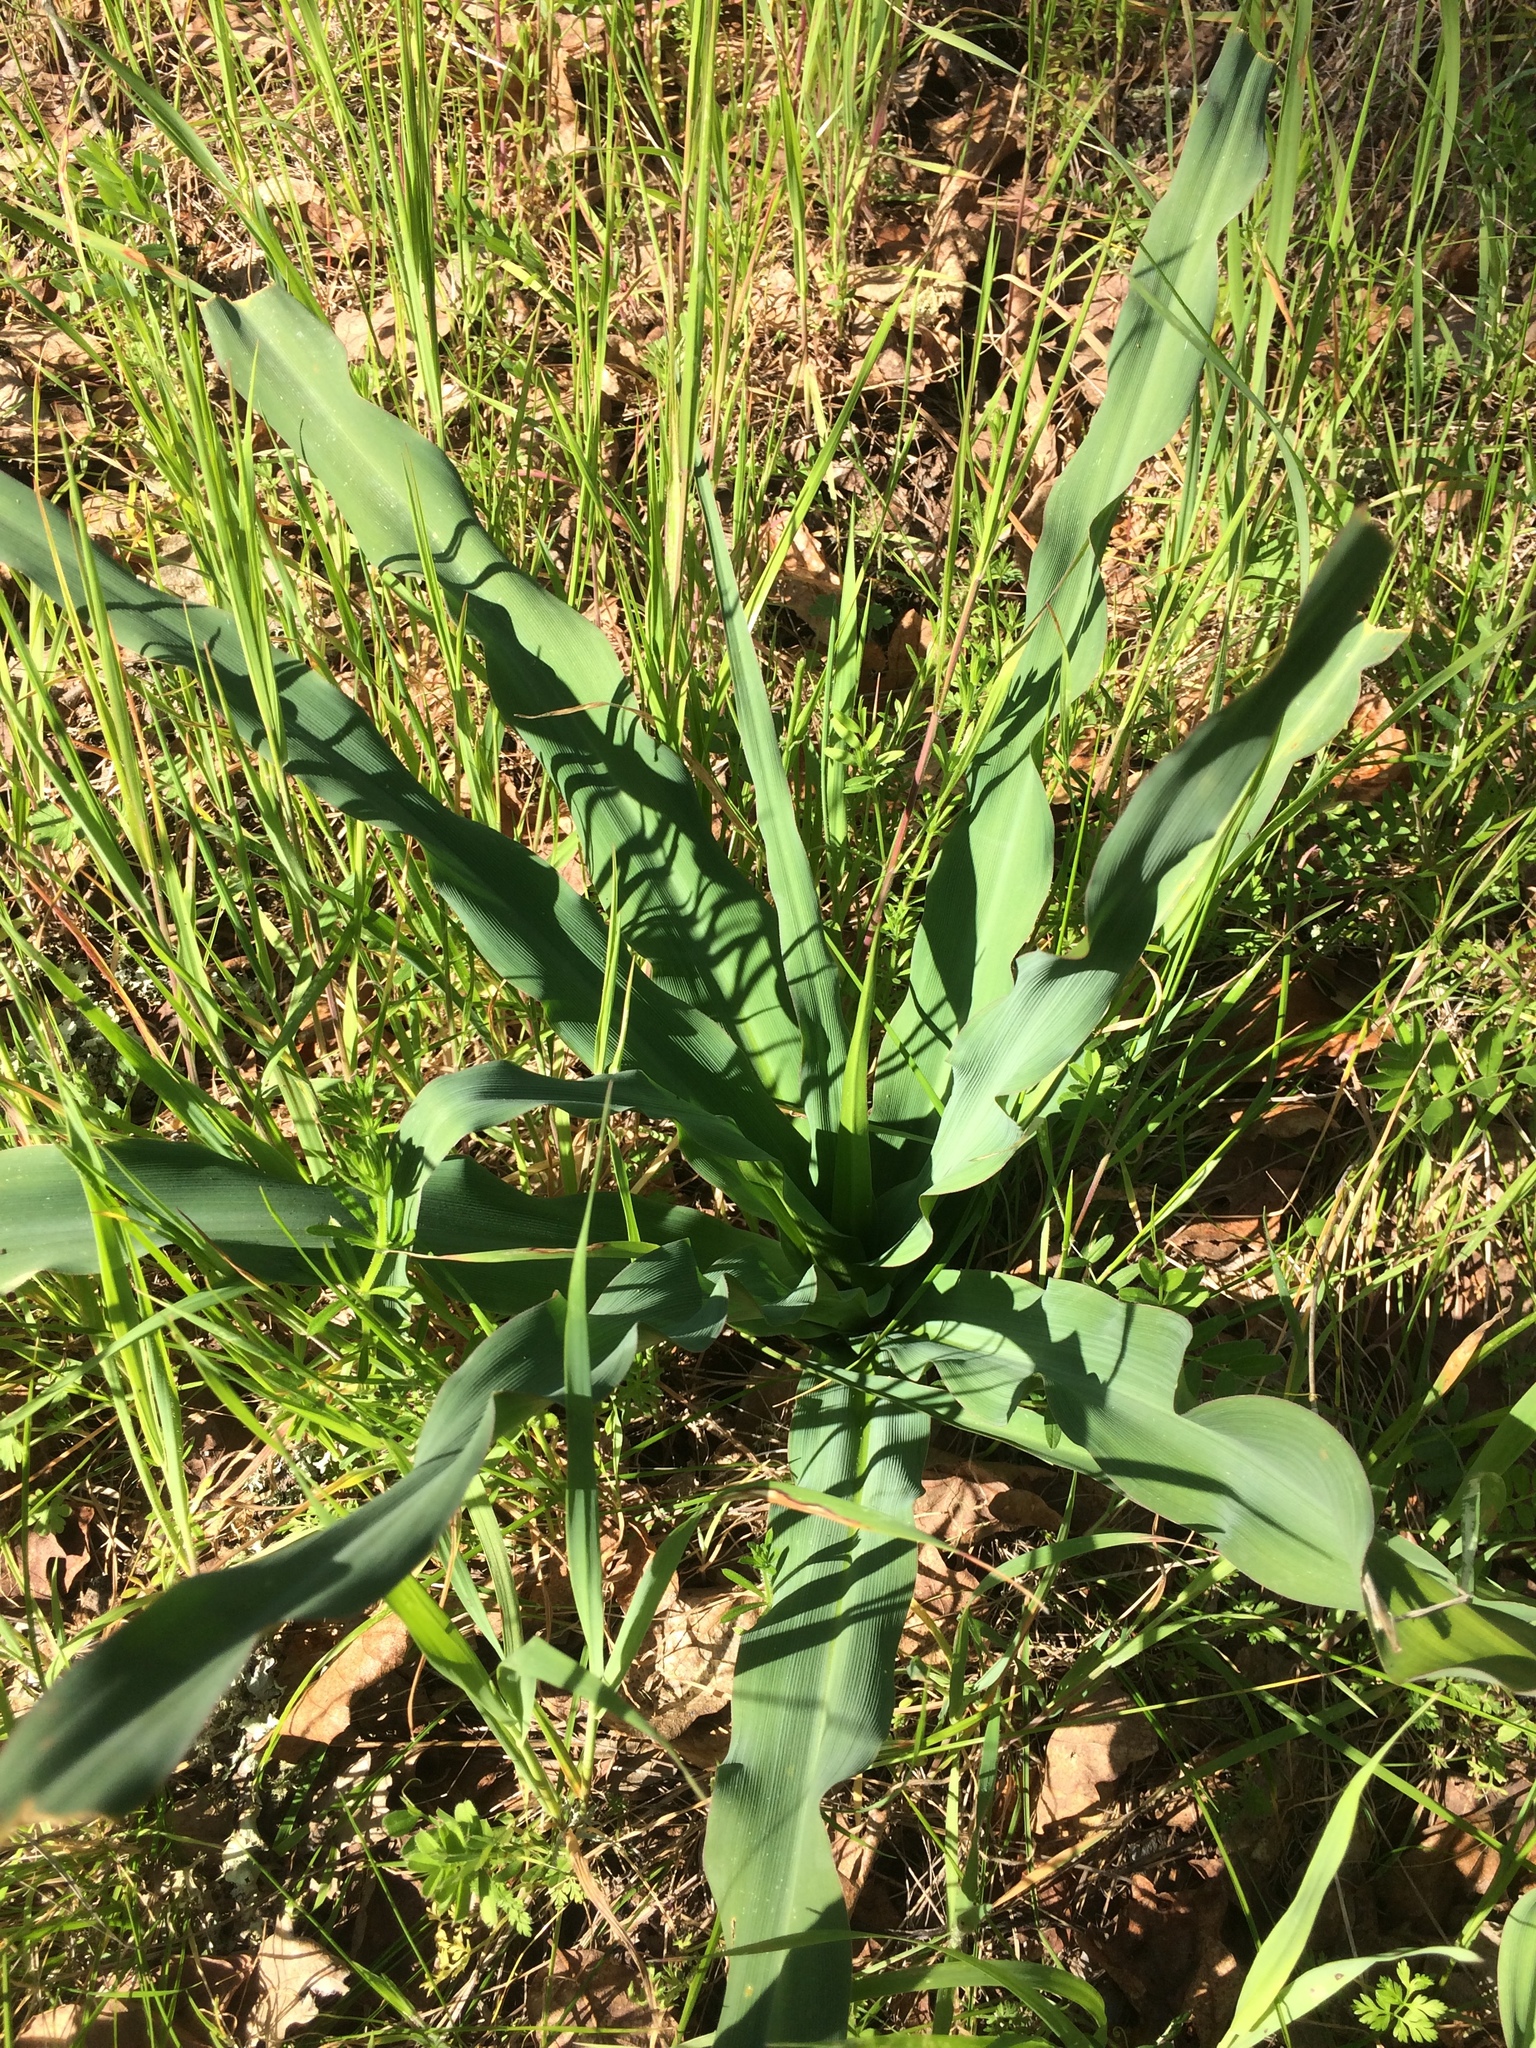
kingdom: Plantae
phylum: Tracheophyta
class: Liliopsida
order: Asparagales
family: Asparagaceae
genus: Chlorogalum
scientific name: Chlorogalum pomeridianum
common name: Amole
